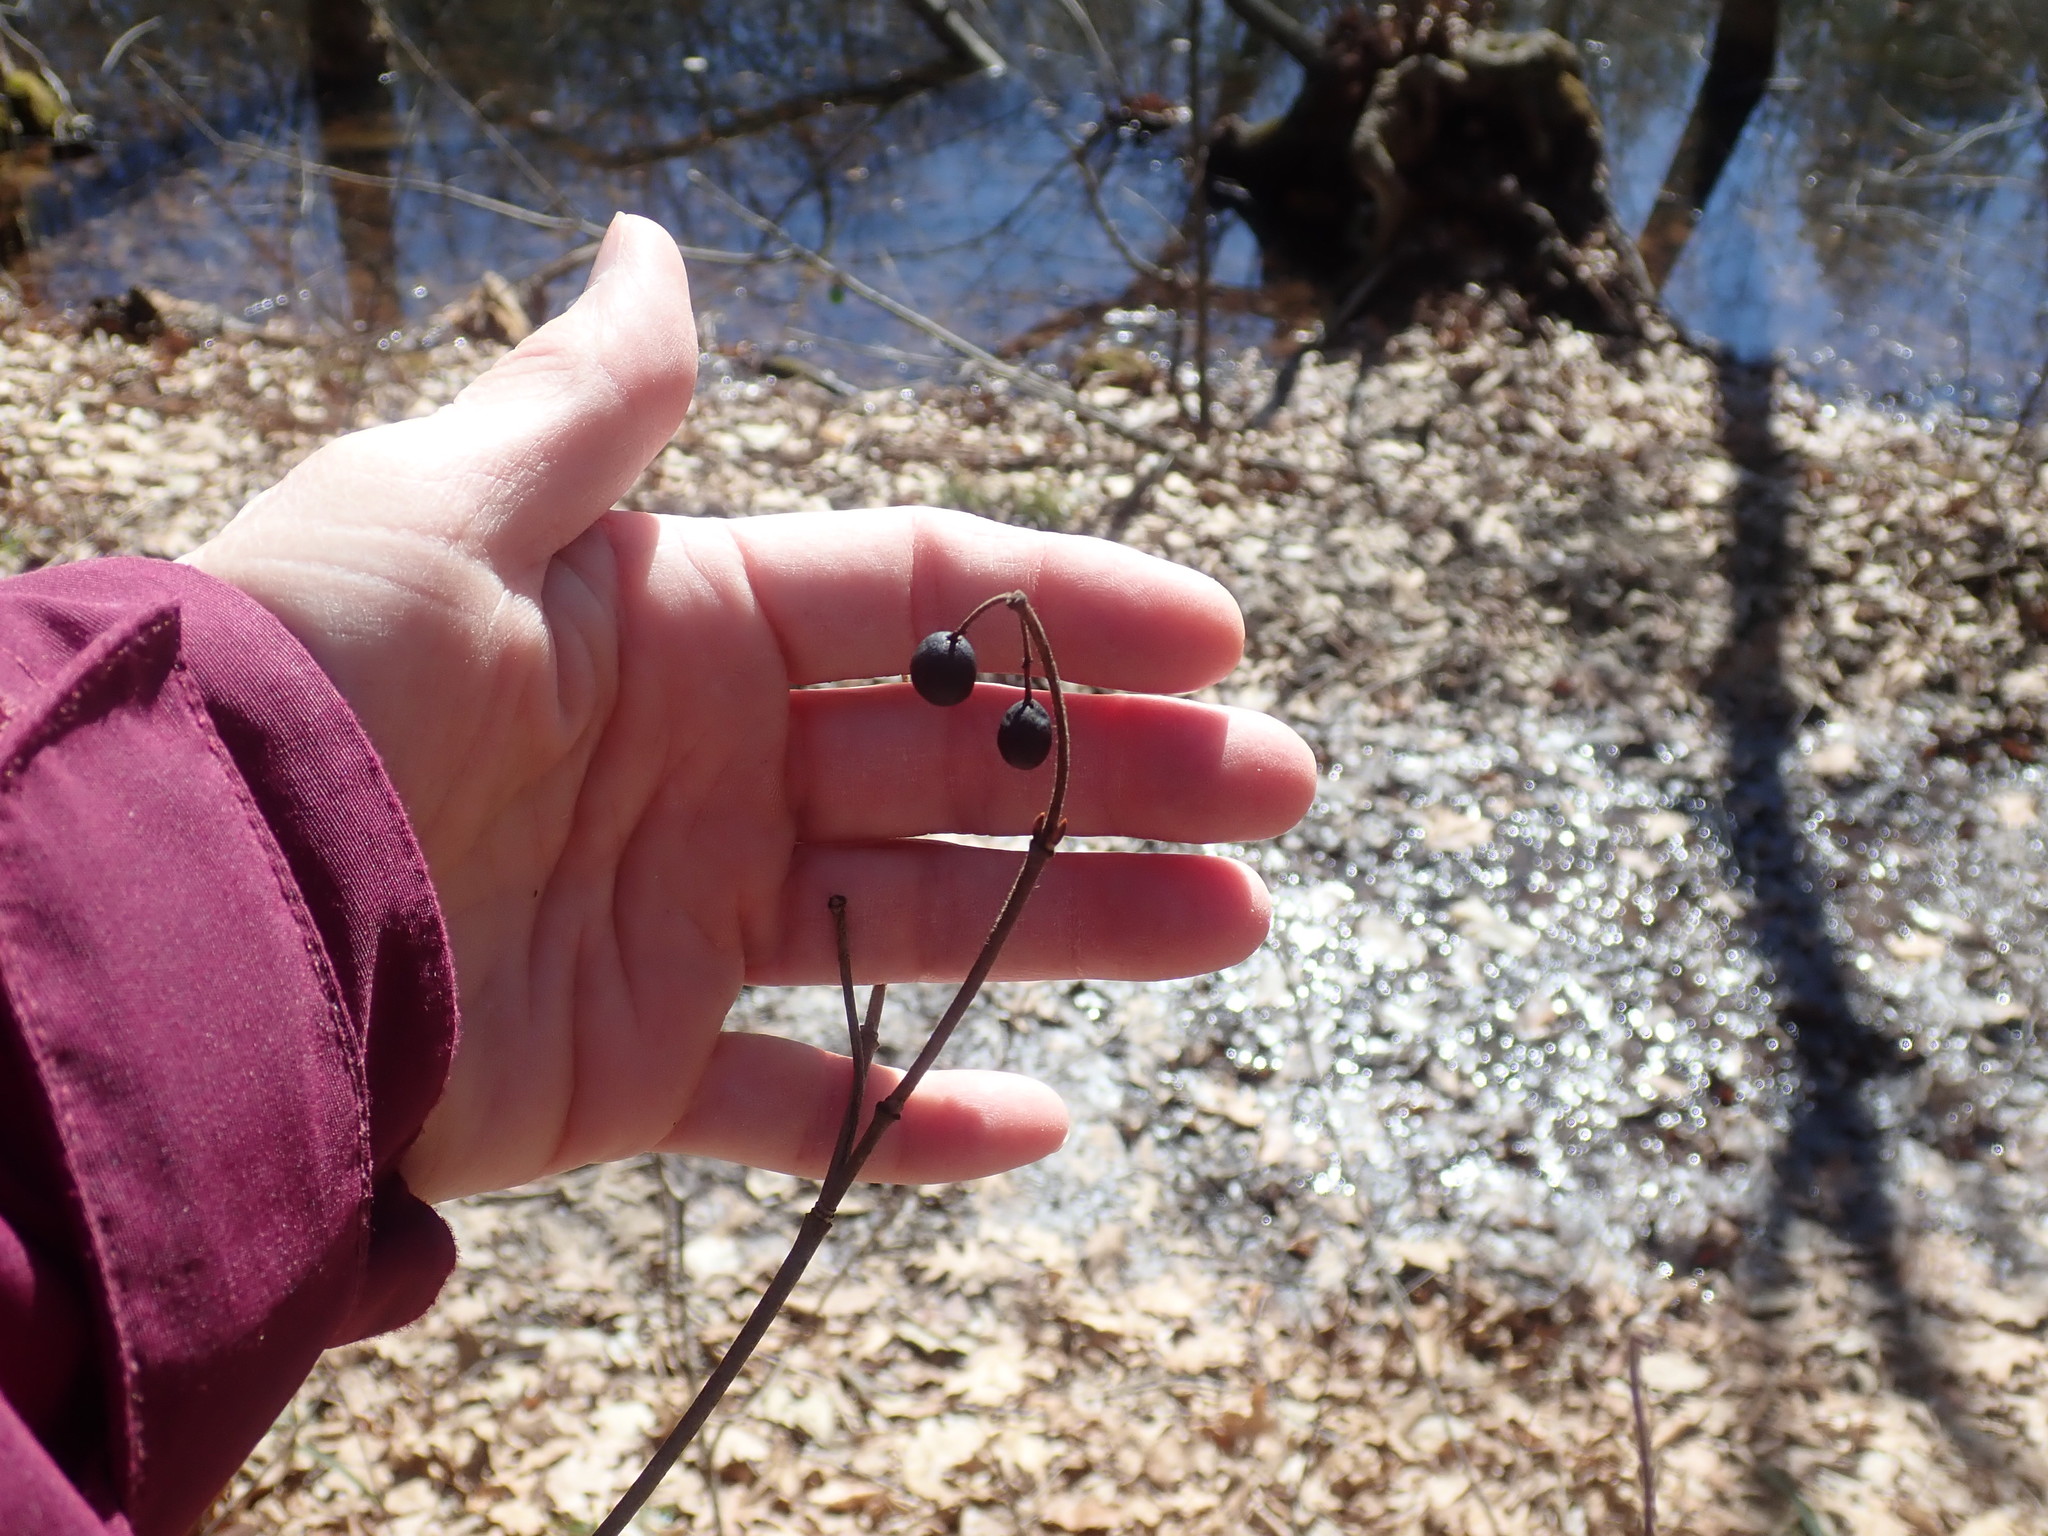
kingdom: Plantae
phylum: Tracheophyta
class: Magnoliopsida
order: Dipsacales
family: Viburnaceae
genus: Viburnum
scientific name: Viburnum acerifolium
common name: Dockmackie
